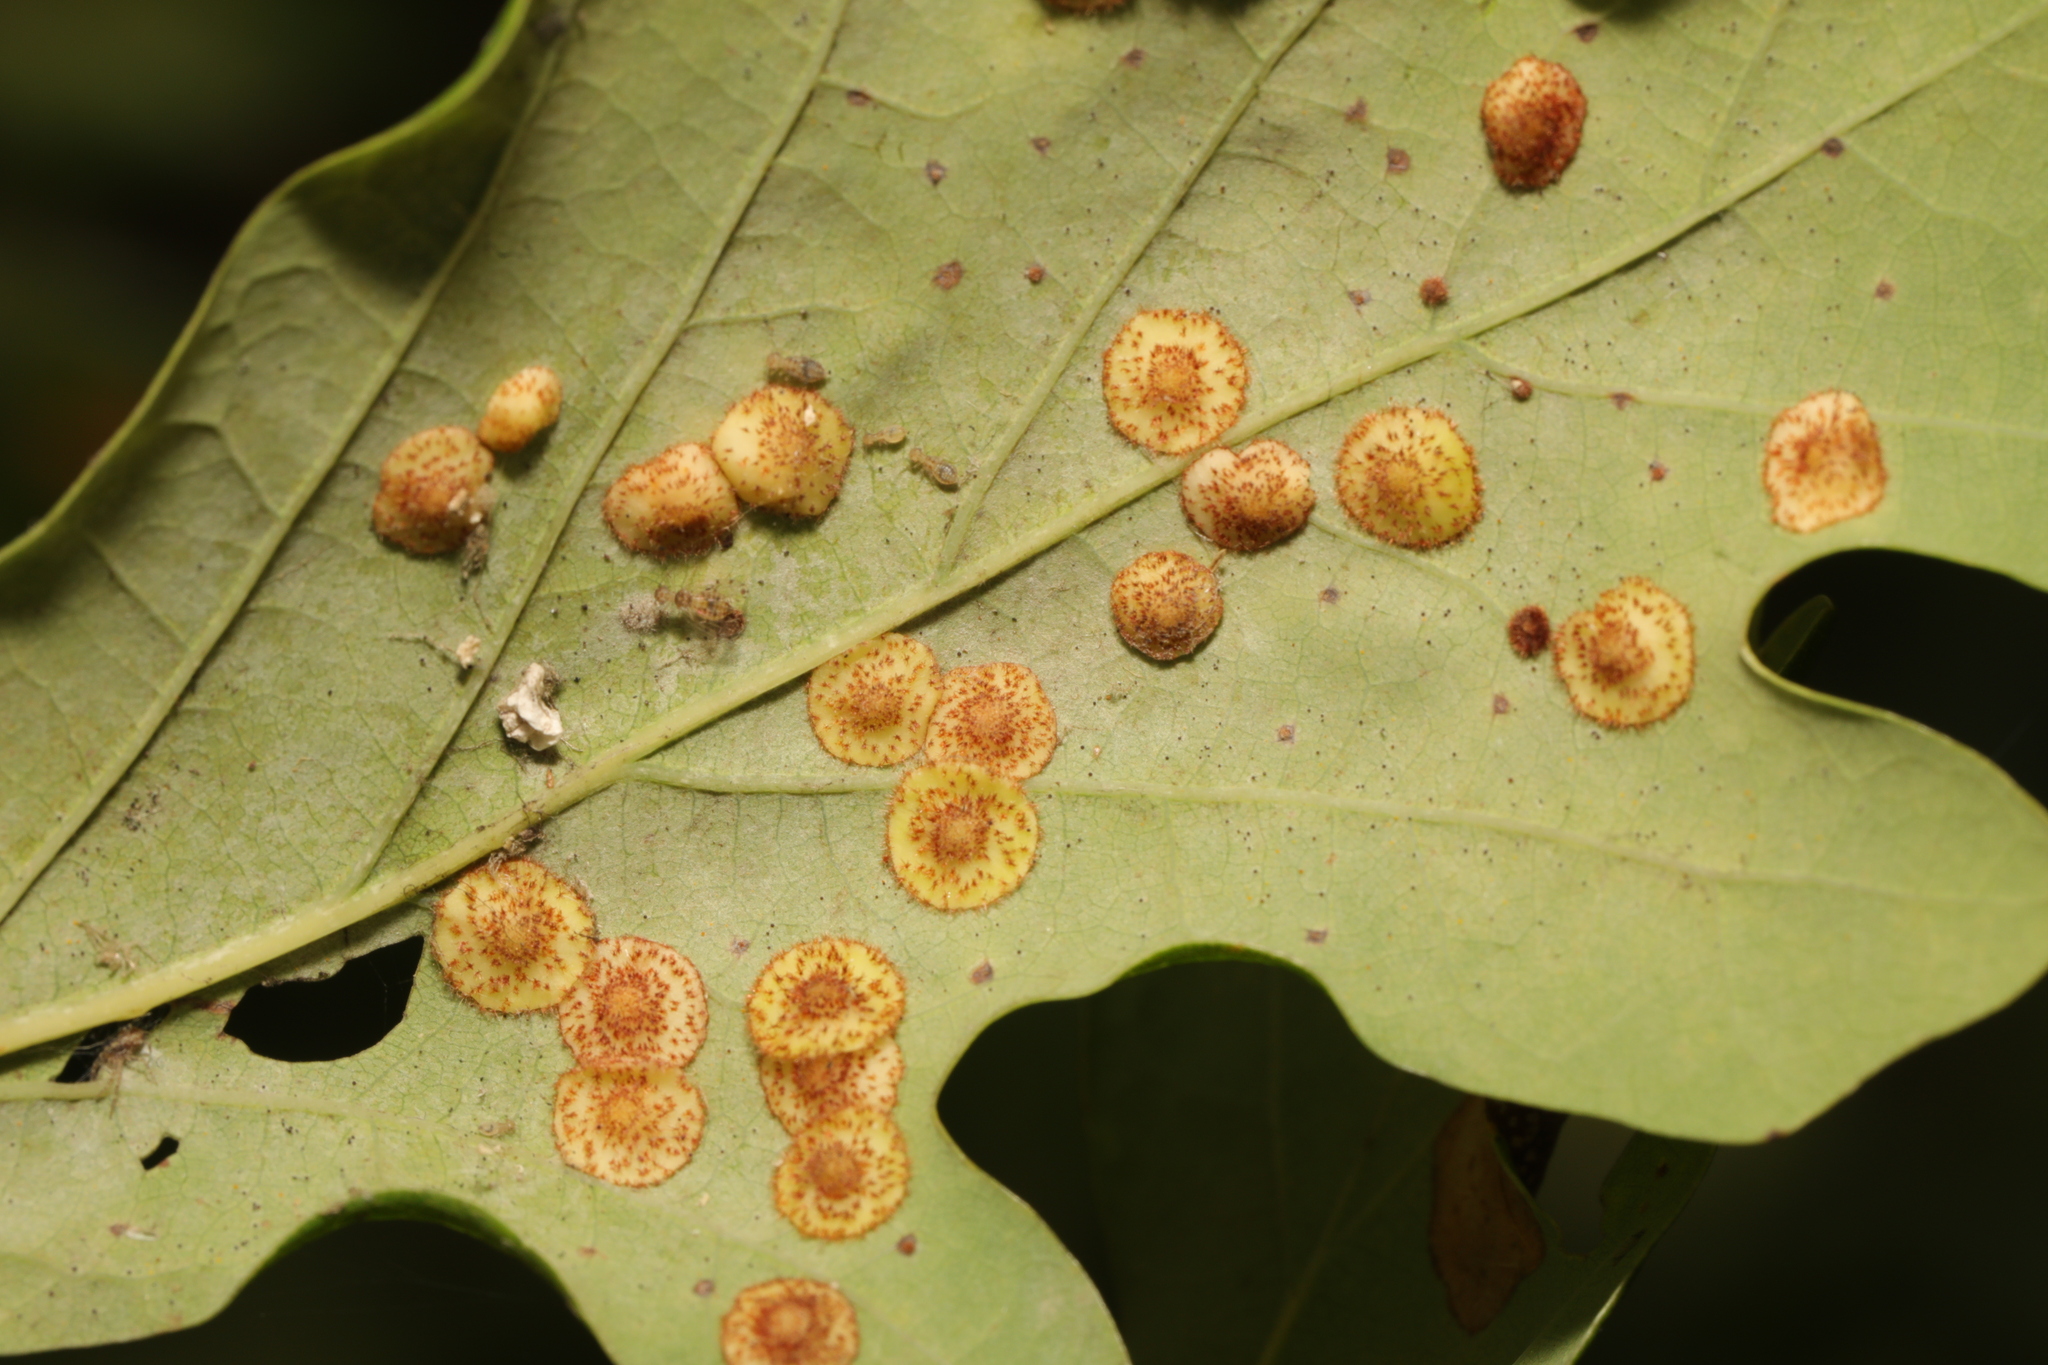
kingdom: Animalia
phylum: Arthropoda
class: Insecta
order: Hymenoptera
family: Cynipidae
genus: Neuroterus
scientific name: Neuroterus quercusbaccarum
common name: Common spangle gall
